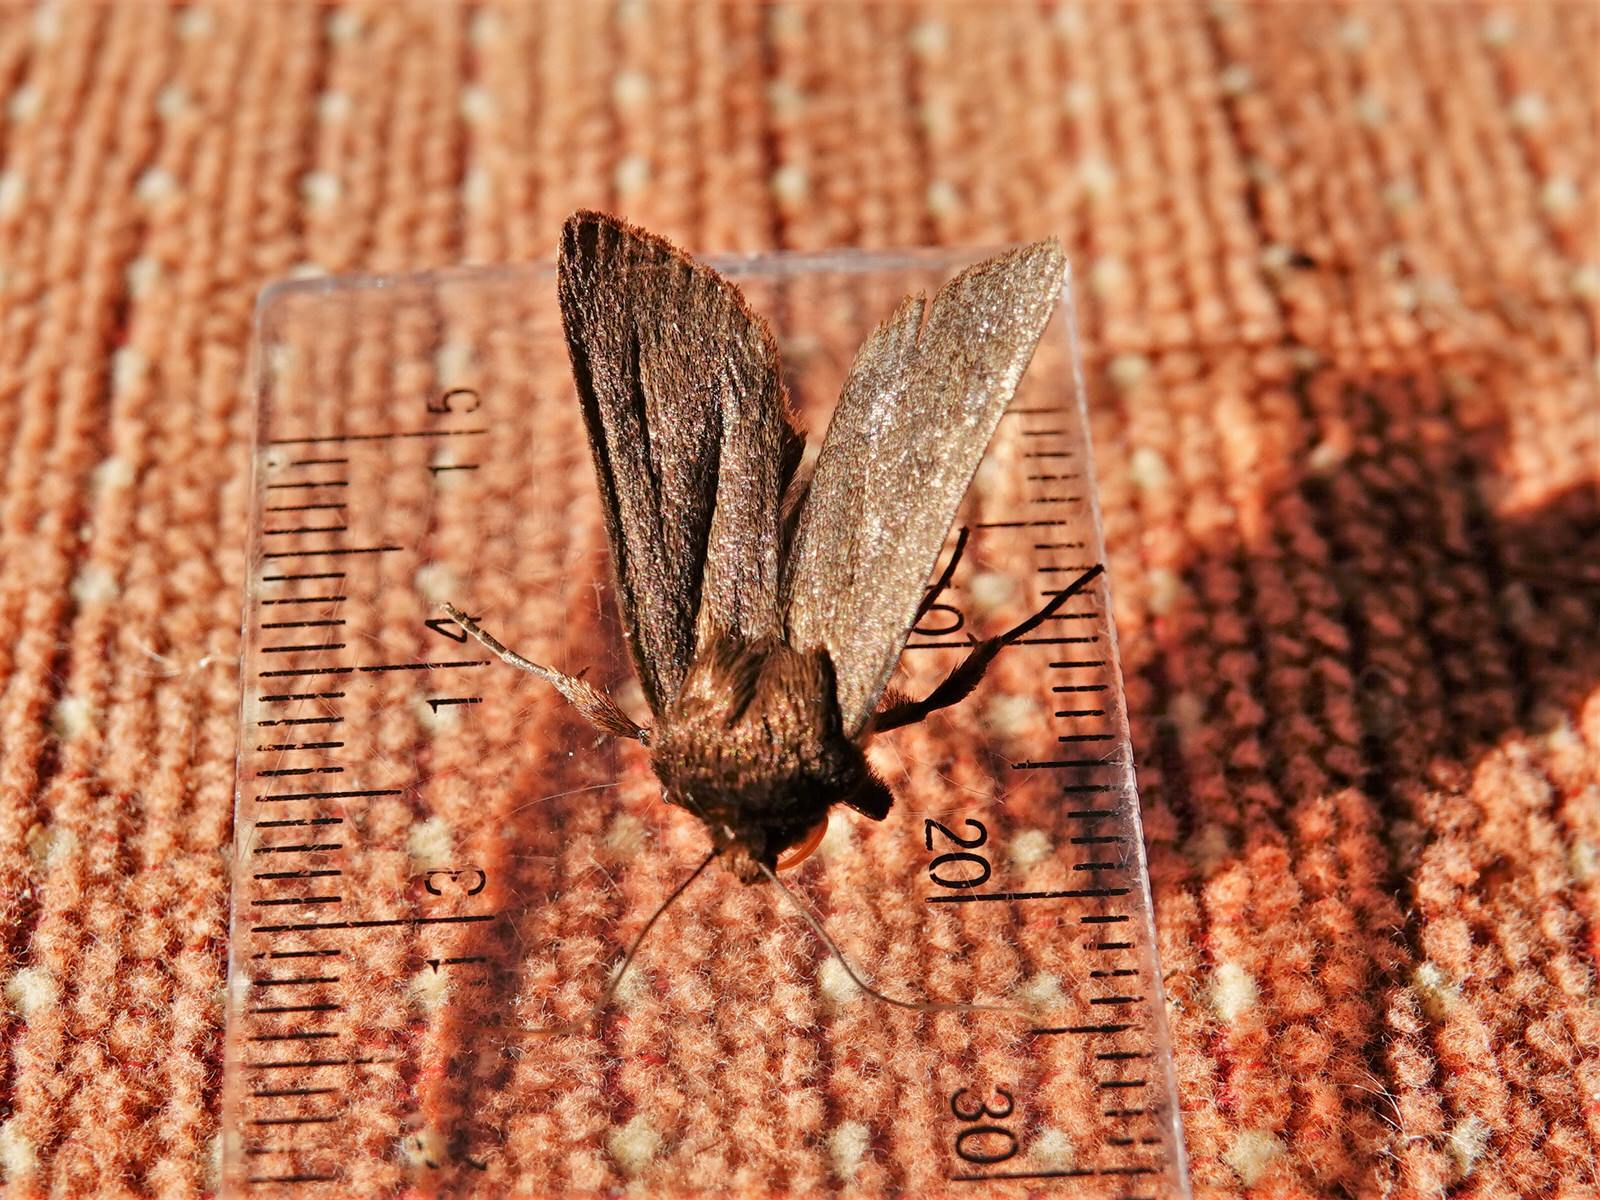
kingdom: Animalia
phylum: Arthropoda
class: Insecta
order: Lepidoptera
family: Noctuidae
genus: Bityla
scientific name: Bityla defigurata
